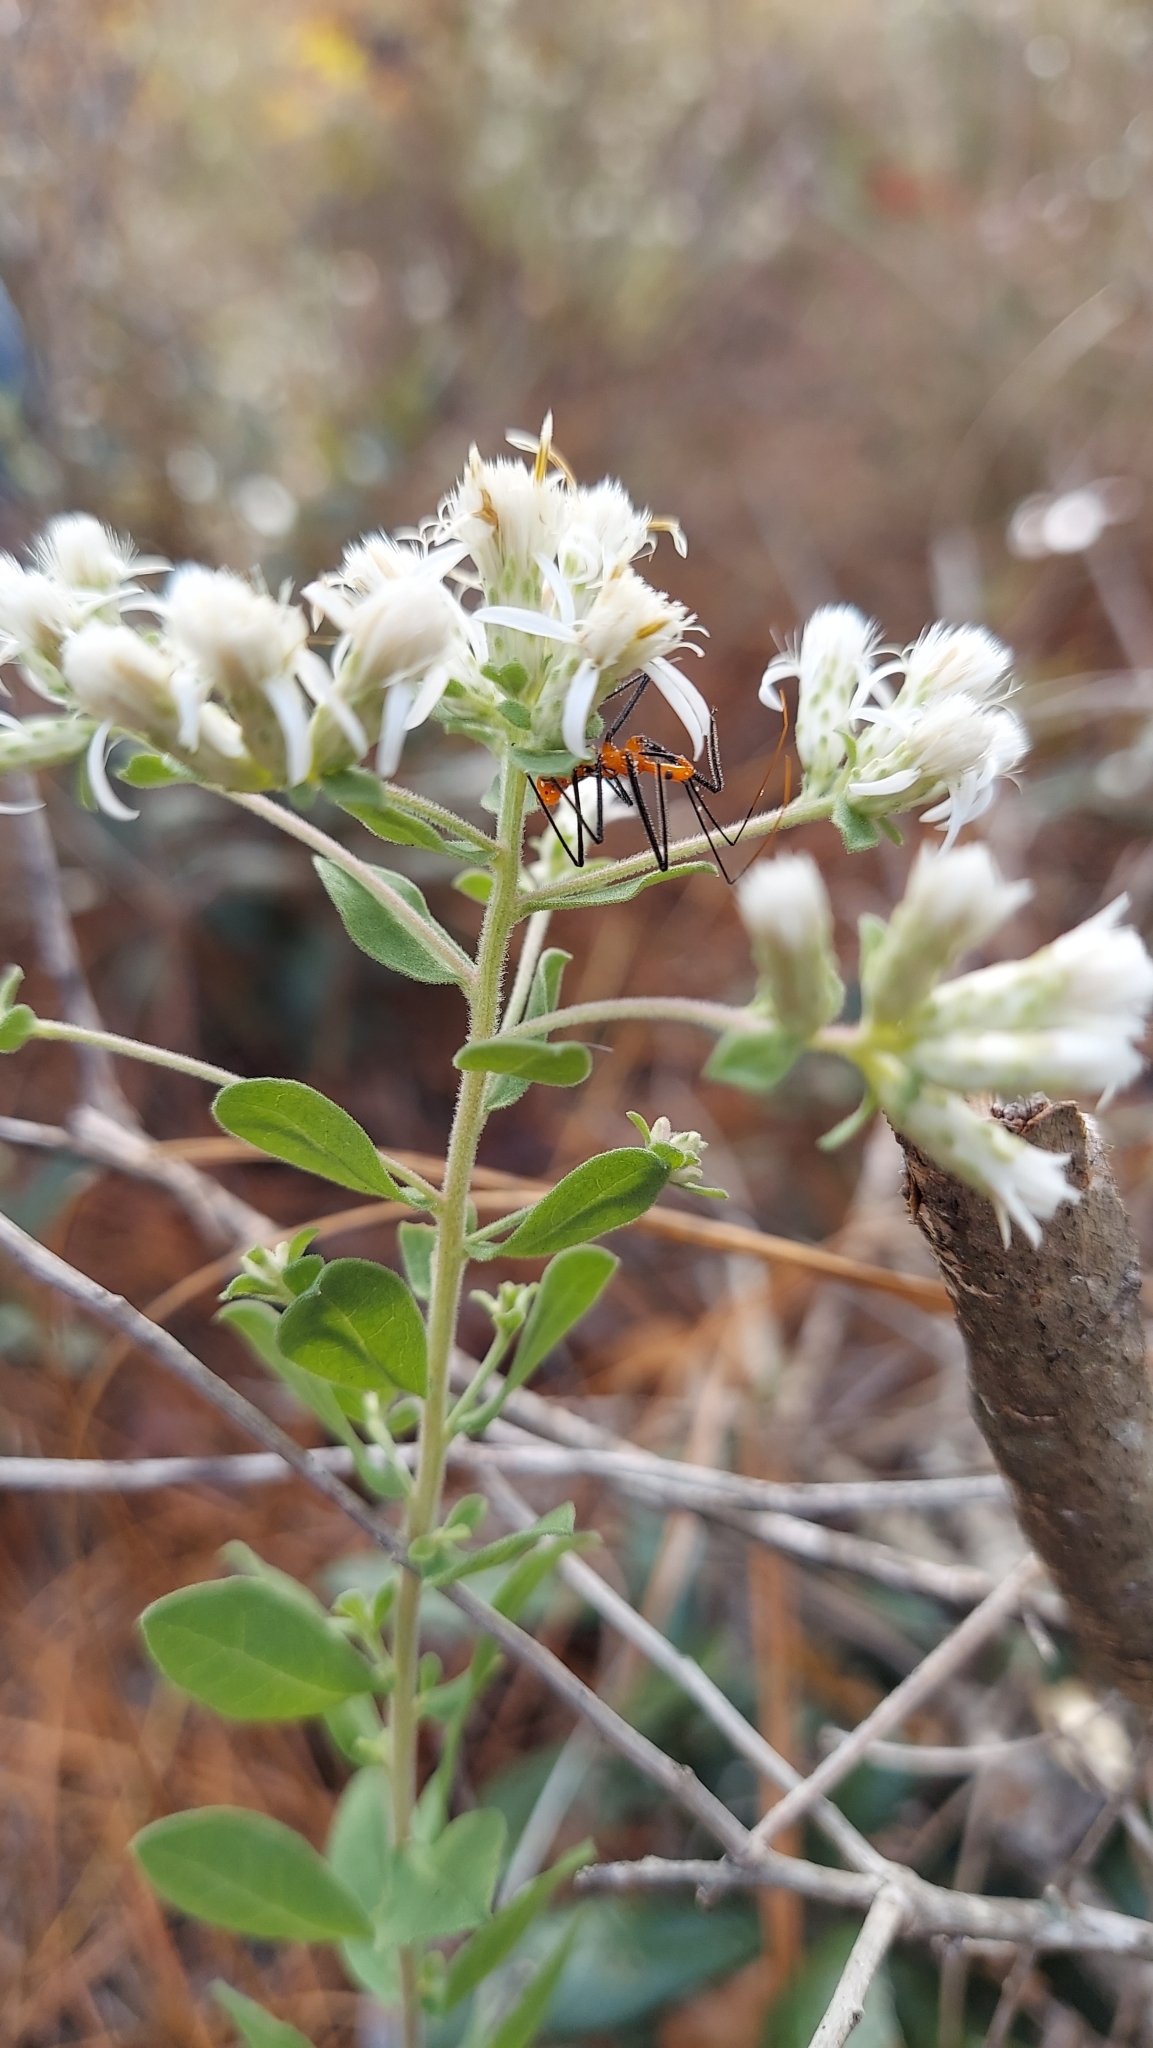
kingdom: Plantae
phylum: Tracheophyta
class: Magnoliopsida
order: Asterales
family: Asteraceae
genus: Sericocarpus
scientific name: Sericocarpus tortifolius
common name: Dixie aster
